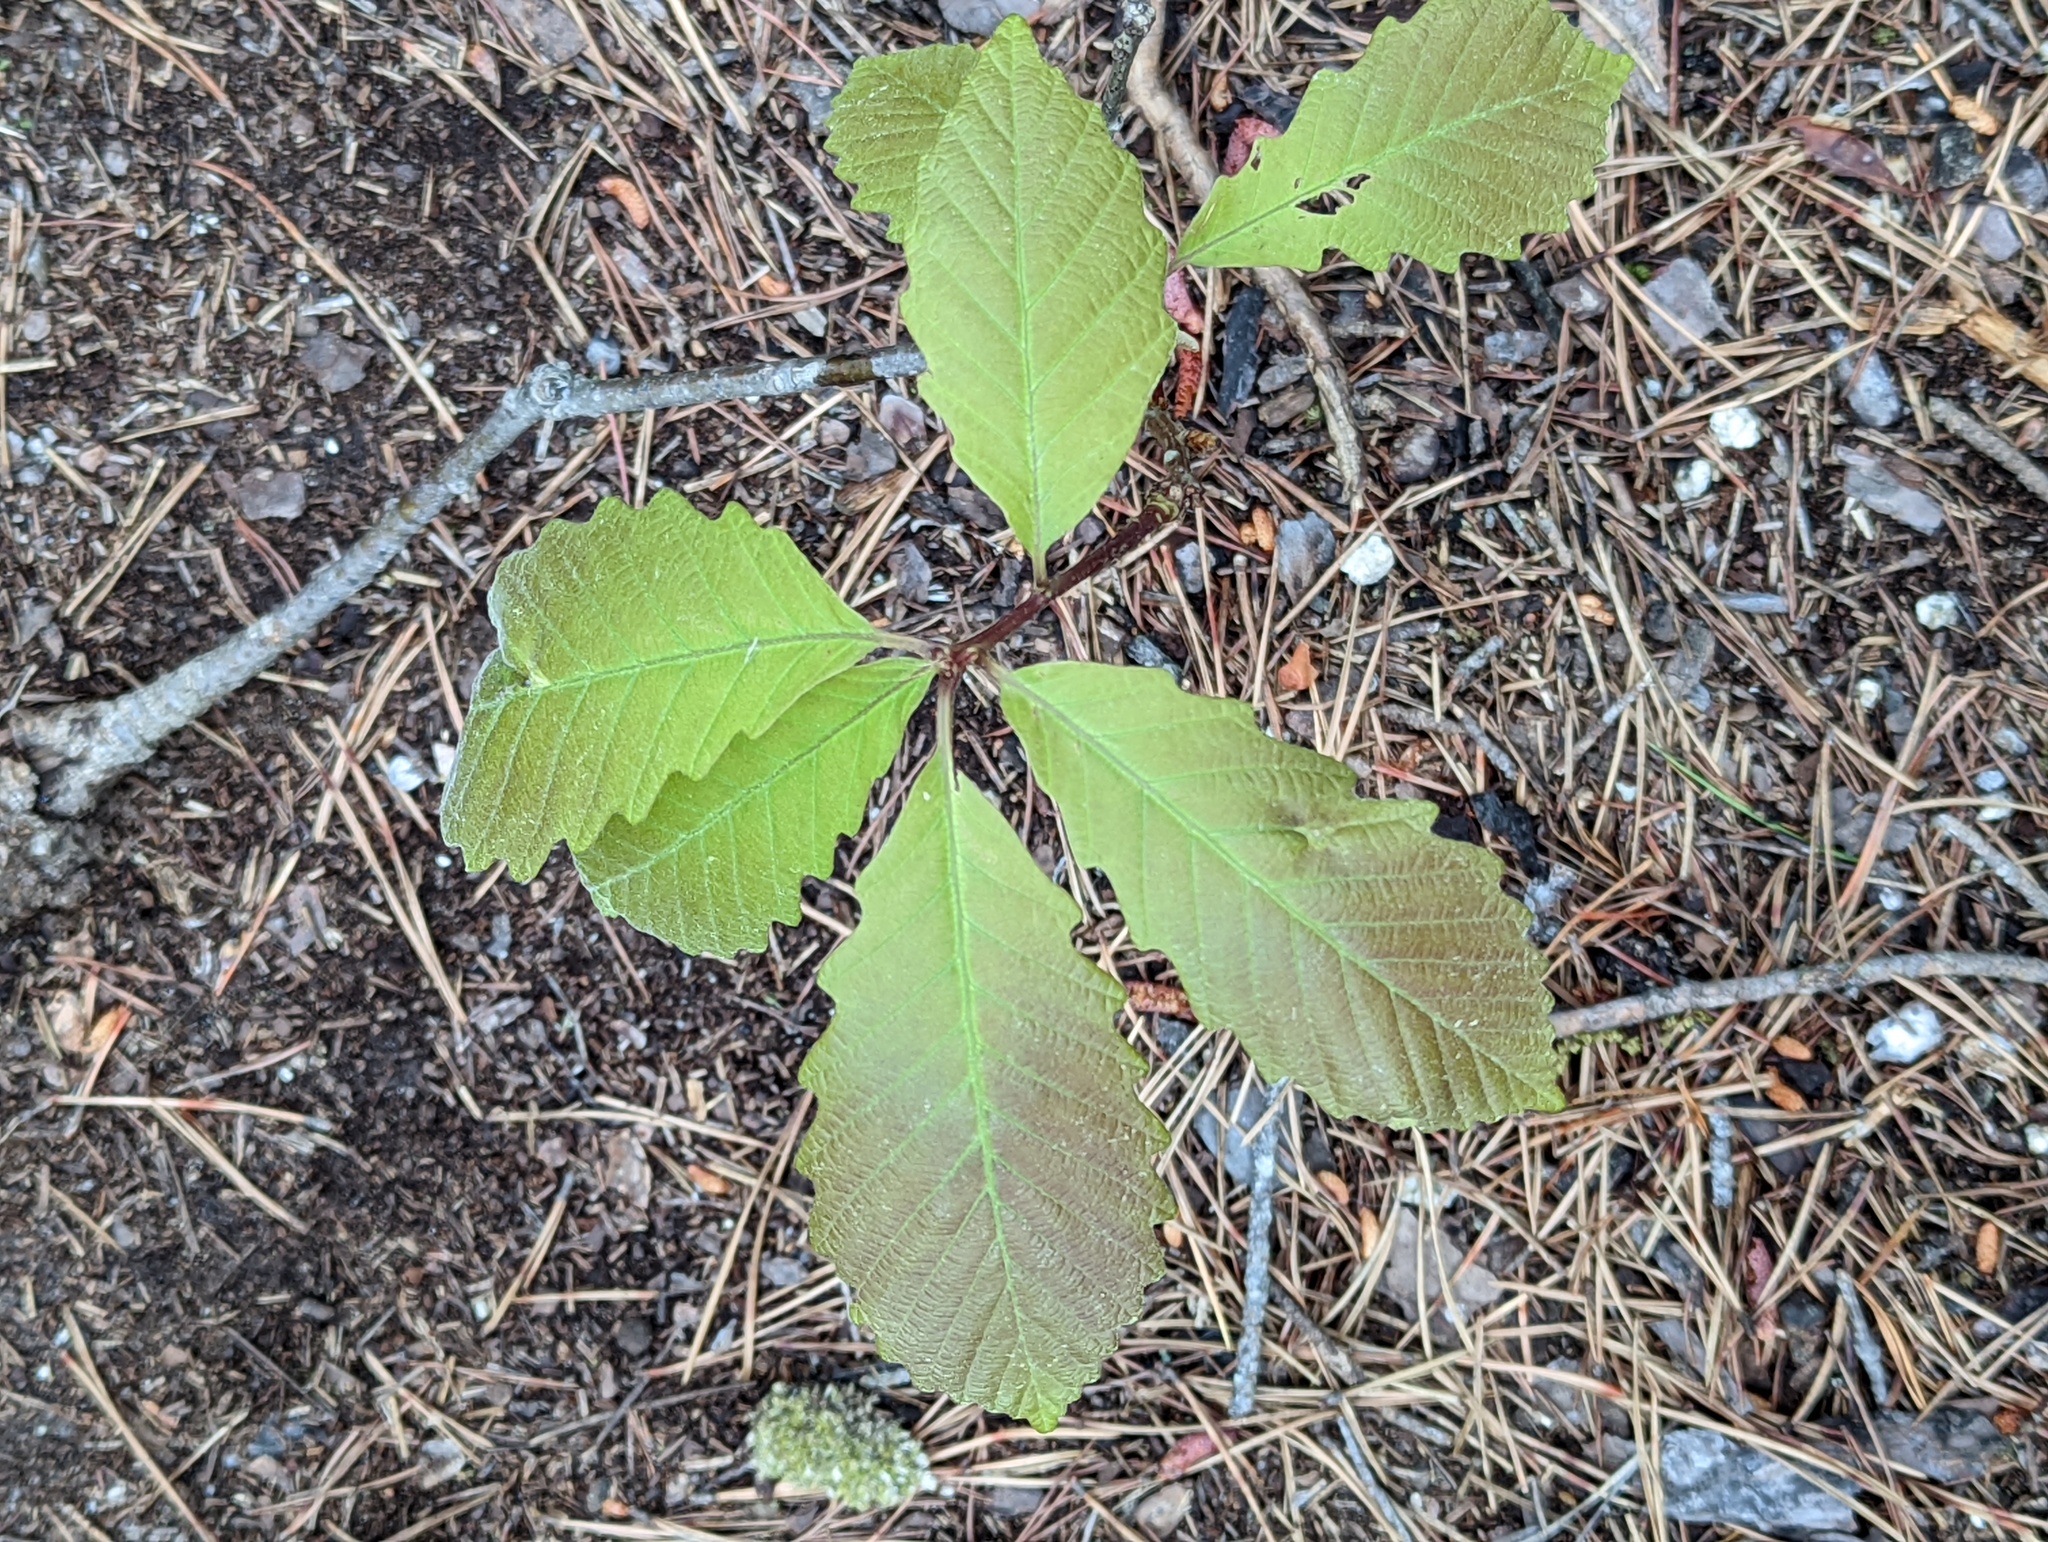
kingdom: Plantae
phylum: Tracheophyta
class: Magnoliopsida
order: Fagales
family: Fagaceae
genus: Quercus
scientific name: Quercus montana
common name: Chestnut oak
